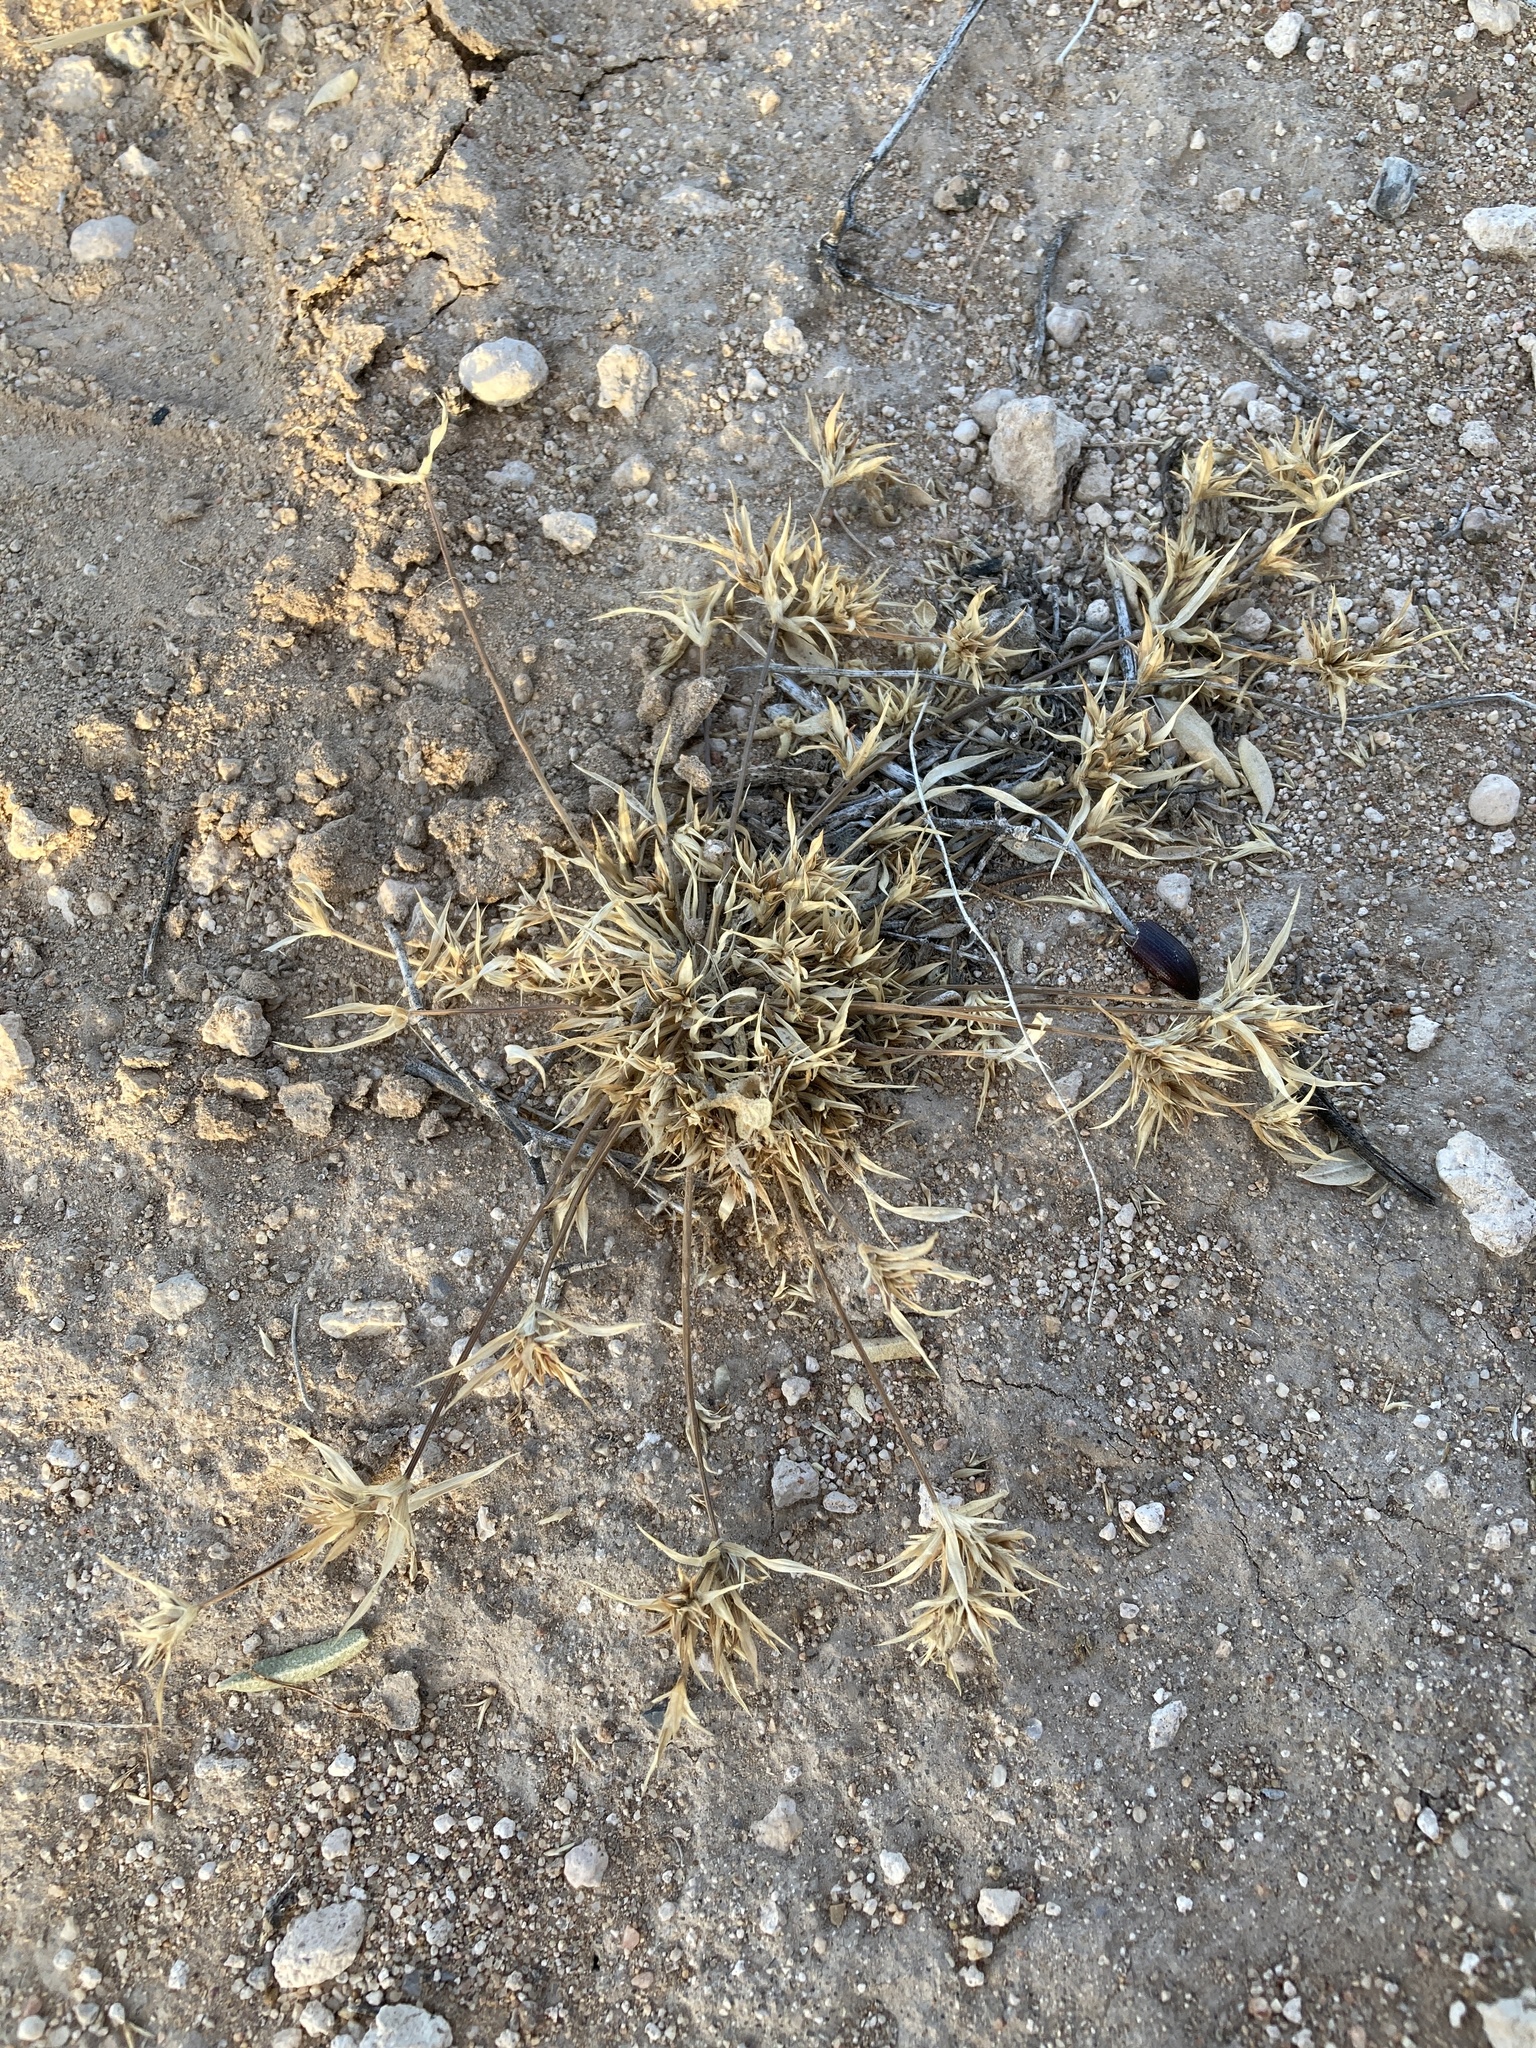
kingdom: Plantae
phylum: Tracheophyta
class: Liliopsida
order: Poales
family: Poaceae
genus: Munroa
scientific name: Munroa squarrosa
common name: False buffalo grass
